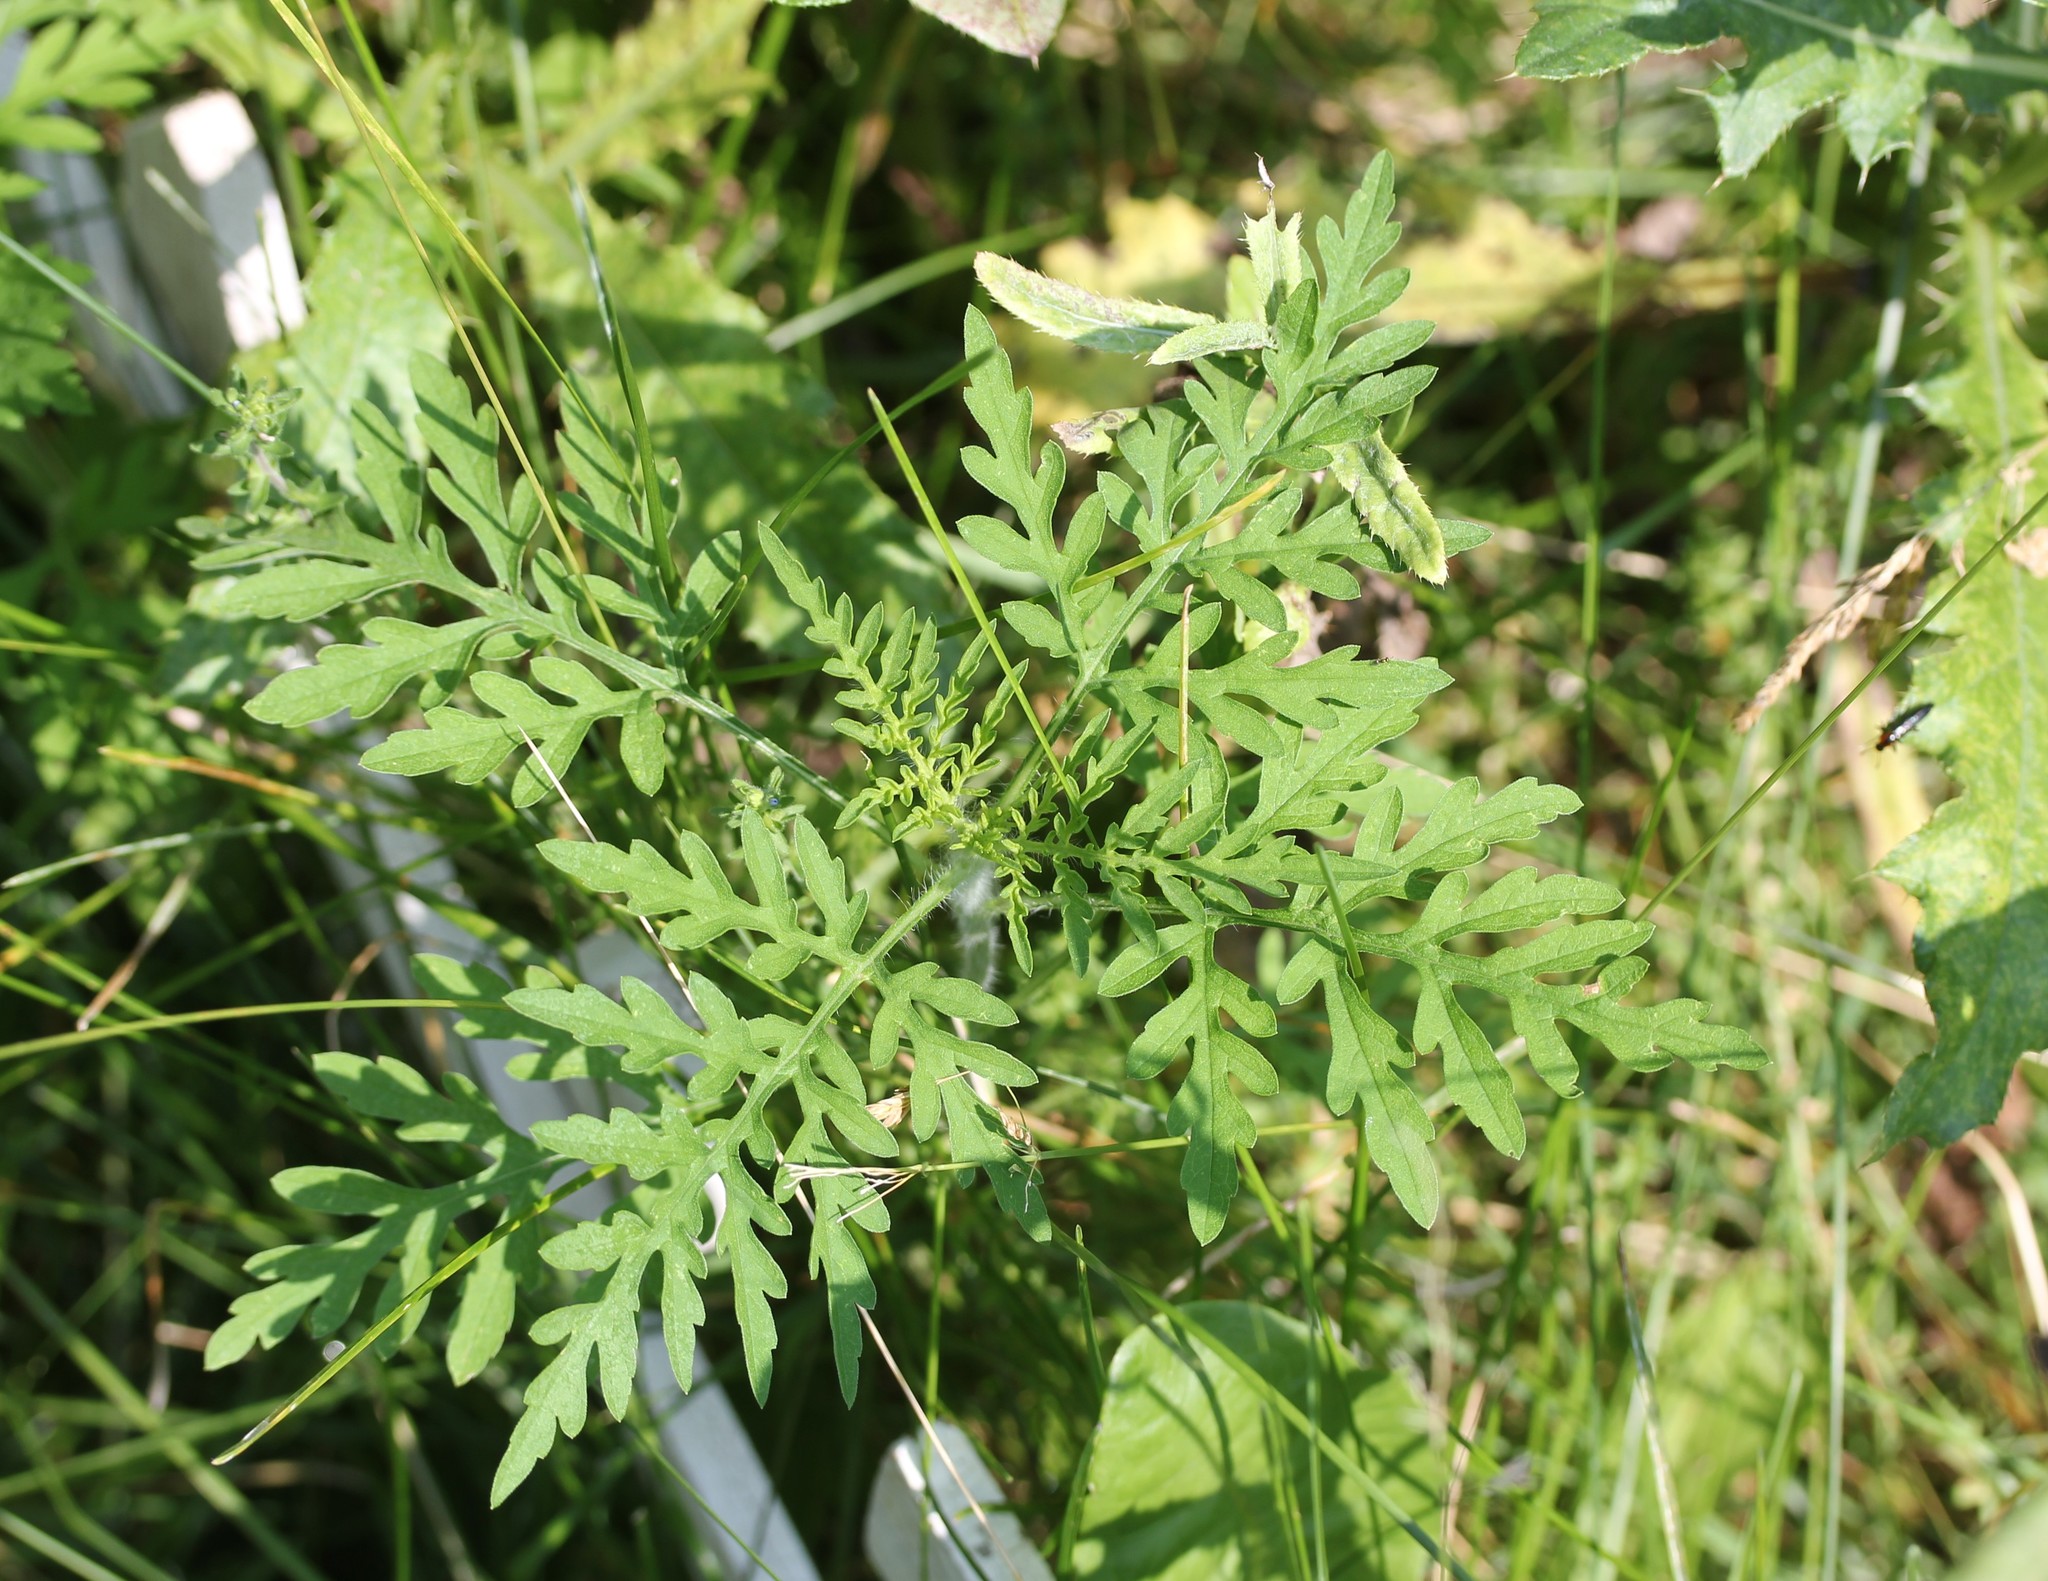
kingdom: Plantae
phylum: Tracheophyta
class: Magnoliopsida
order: Asterales
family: Asteraceae
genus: Ambrosia
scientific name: Ambrosia artemisiifolia
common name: Annual ragweed
